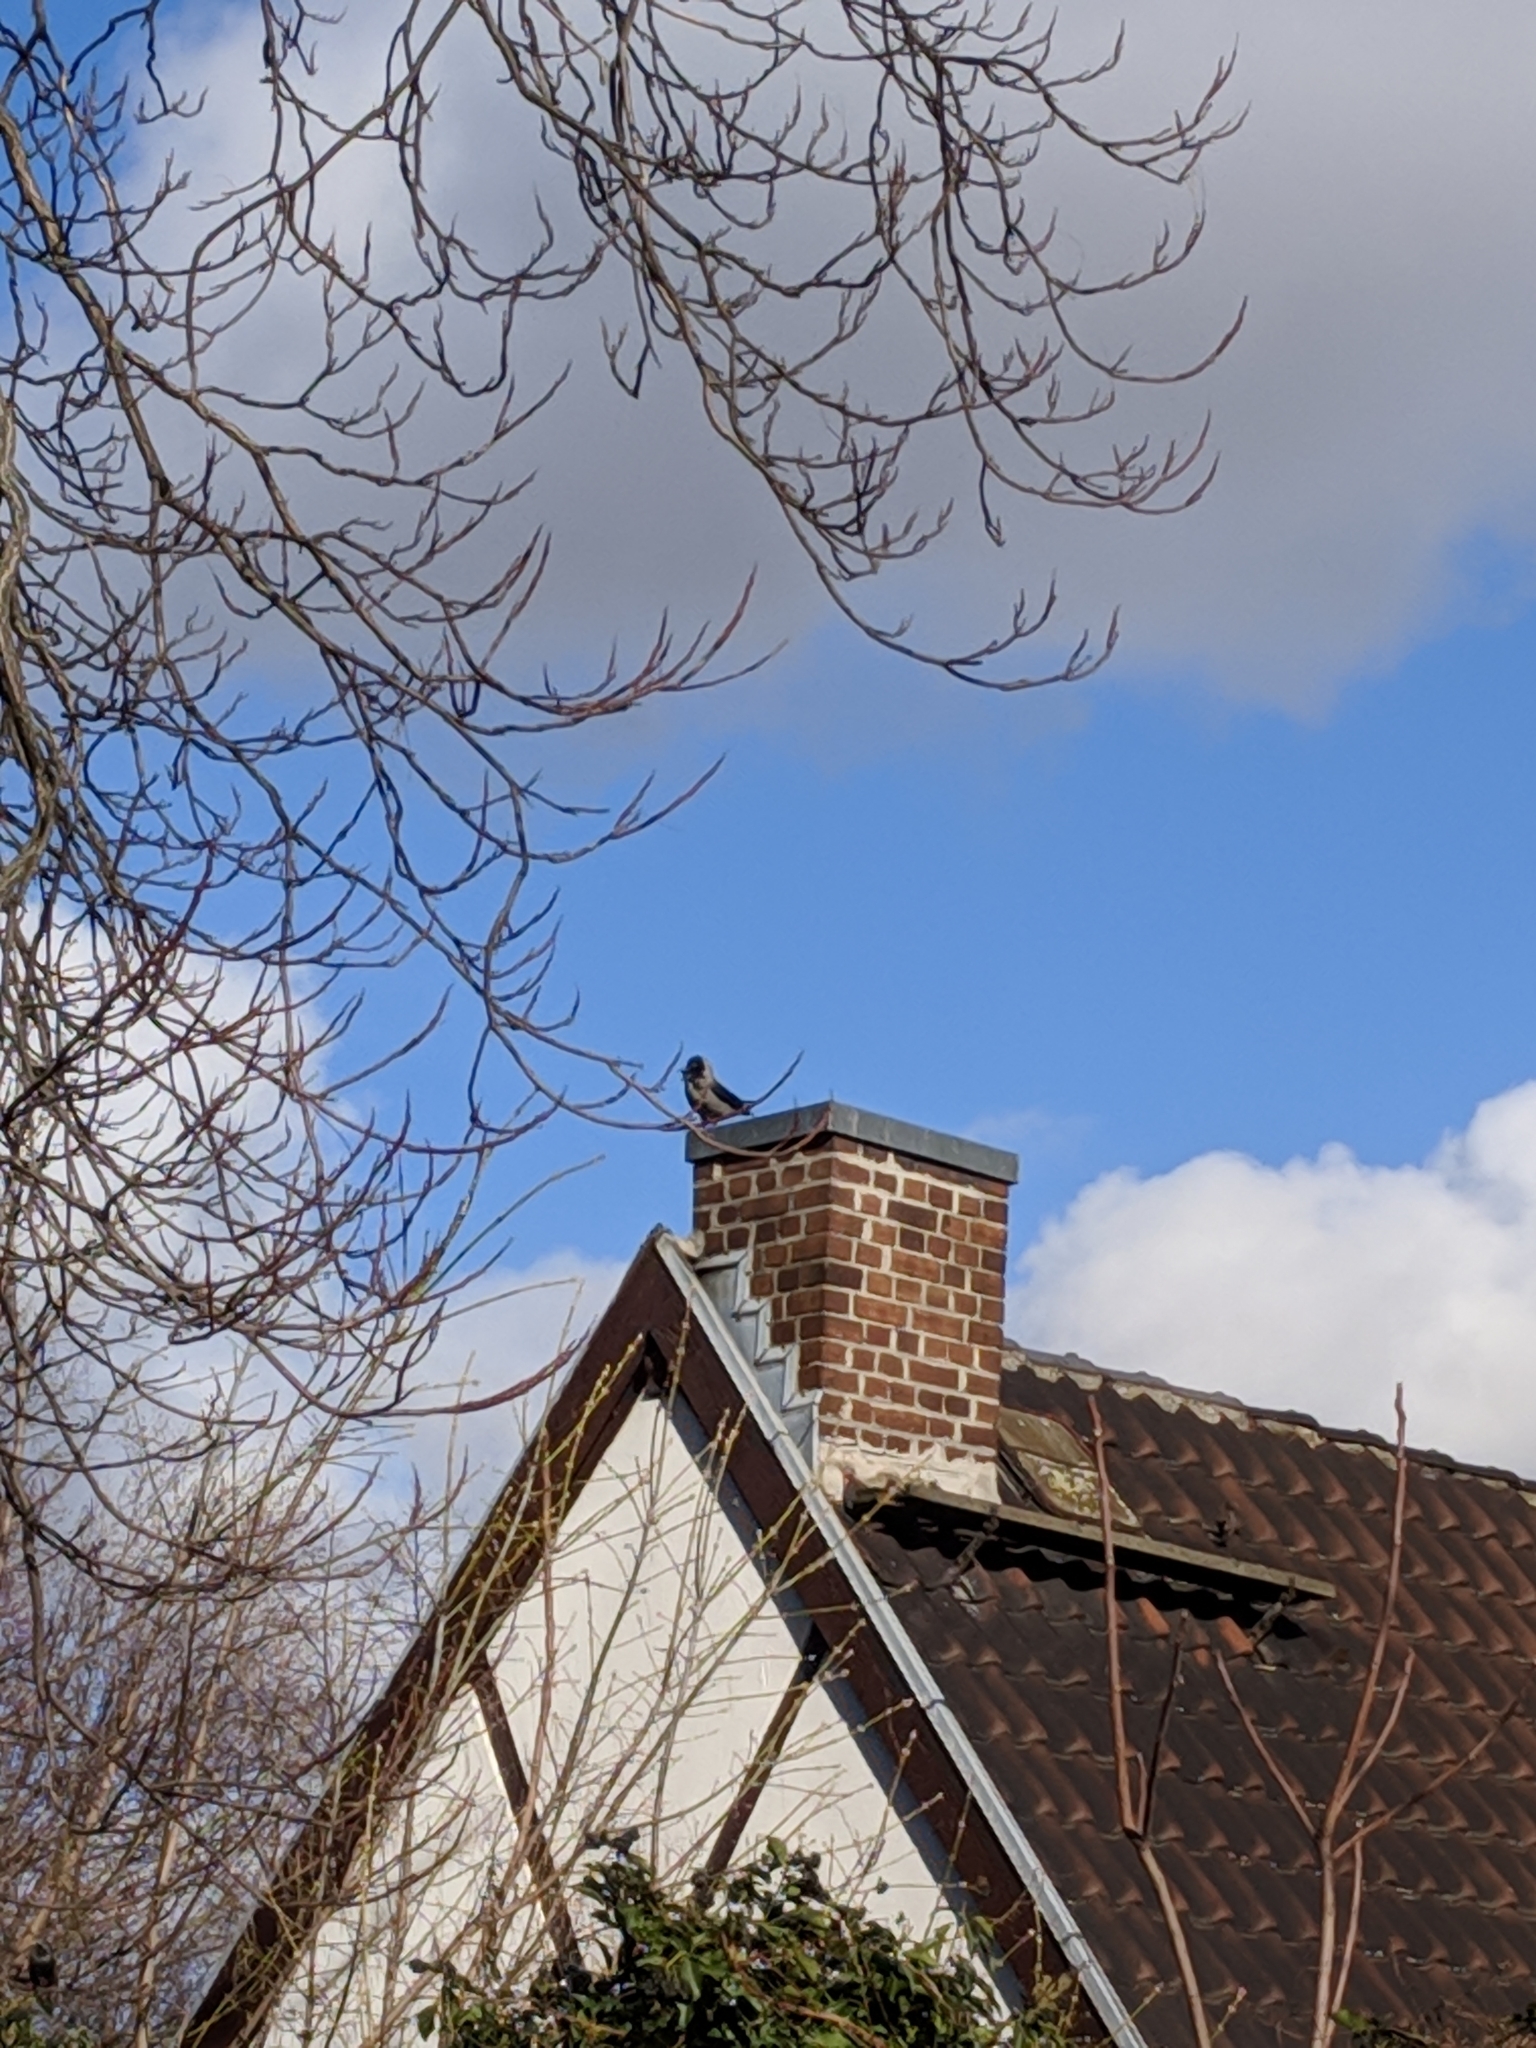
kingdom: Animalia
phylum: Chordata
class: Aves
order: Passeriformes
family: Corvidae
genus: Corvus
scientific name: Corvus cornix
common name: Hooded crow
